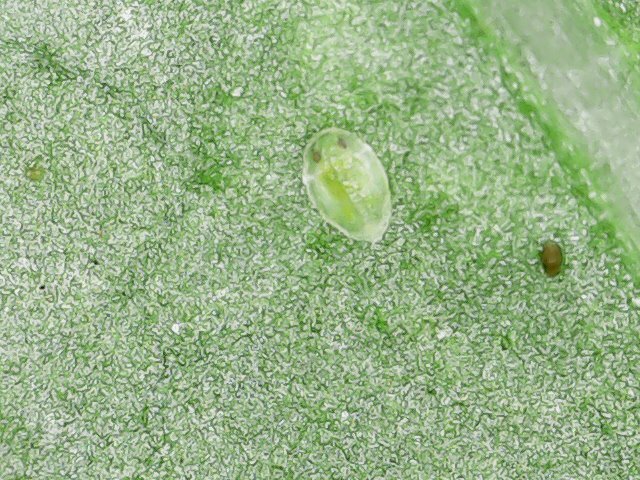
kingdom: Animalia
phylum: Arthropoda
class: Insecta
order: Hemiptera
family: Aleyrodidae
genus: Bemisia
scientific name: Bemisia tabaci
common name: Sweetpotato whitefly
